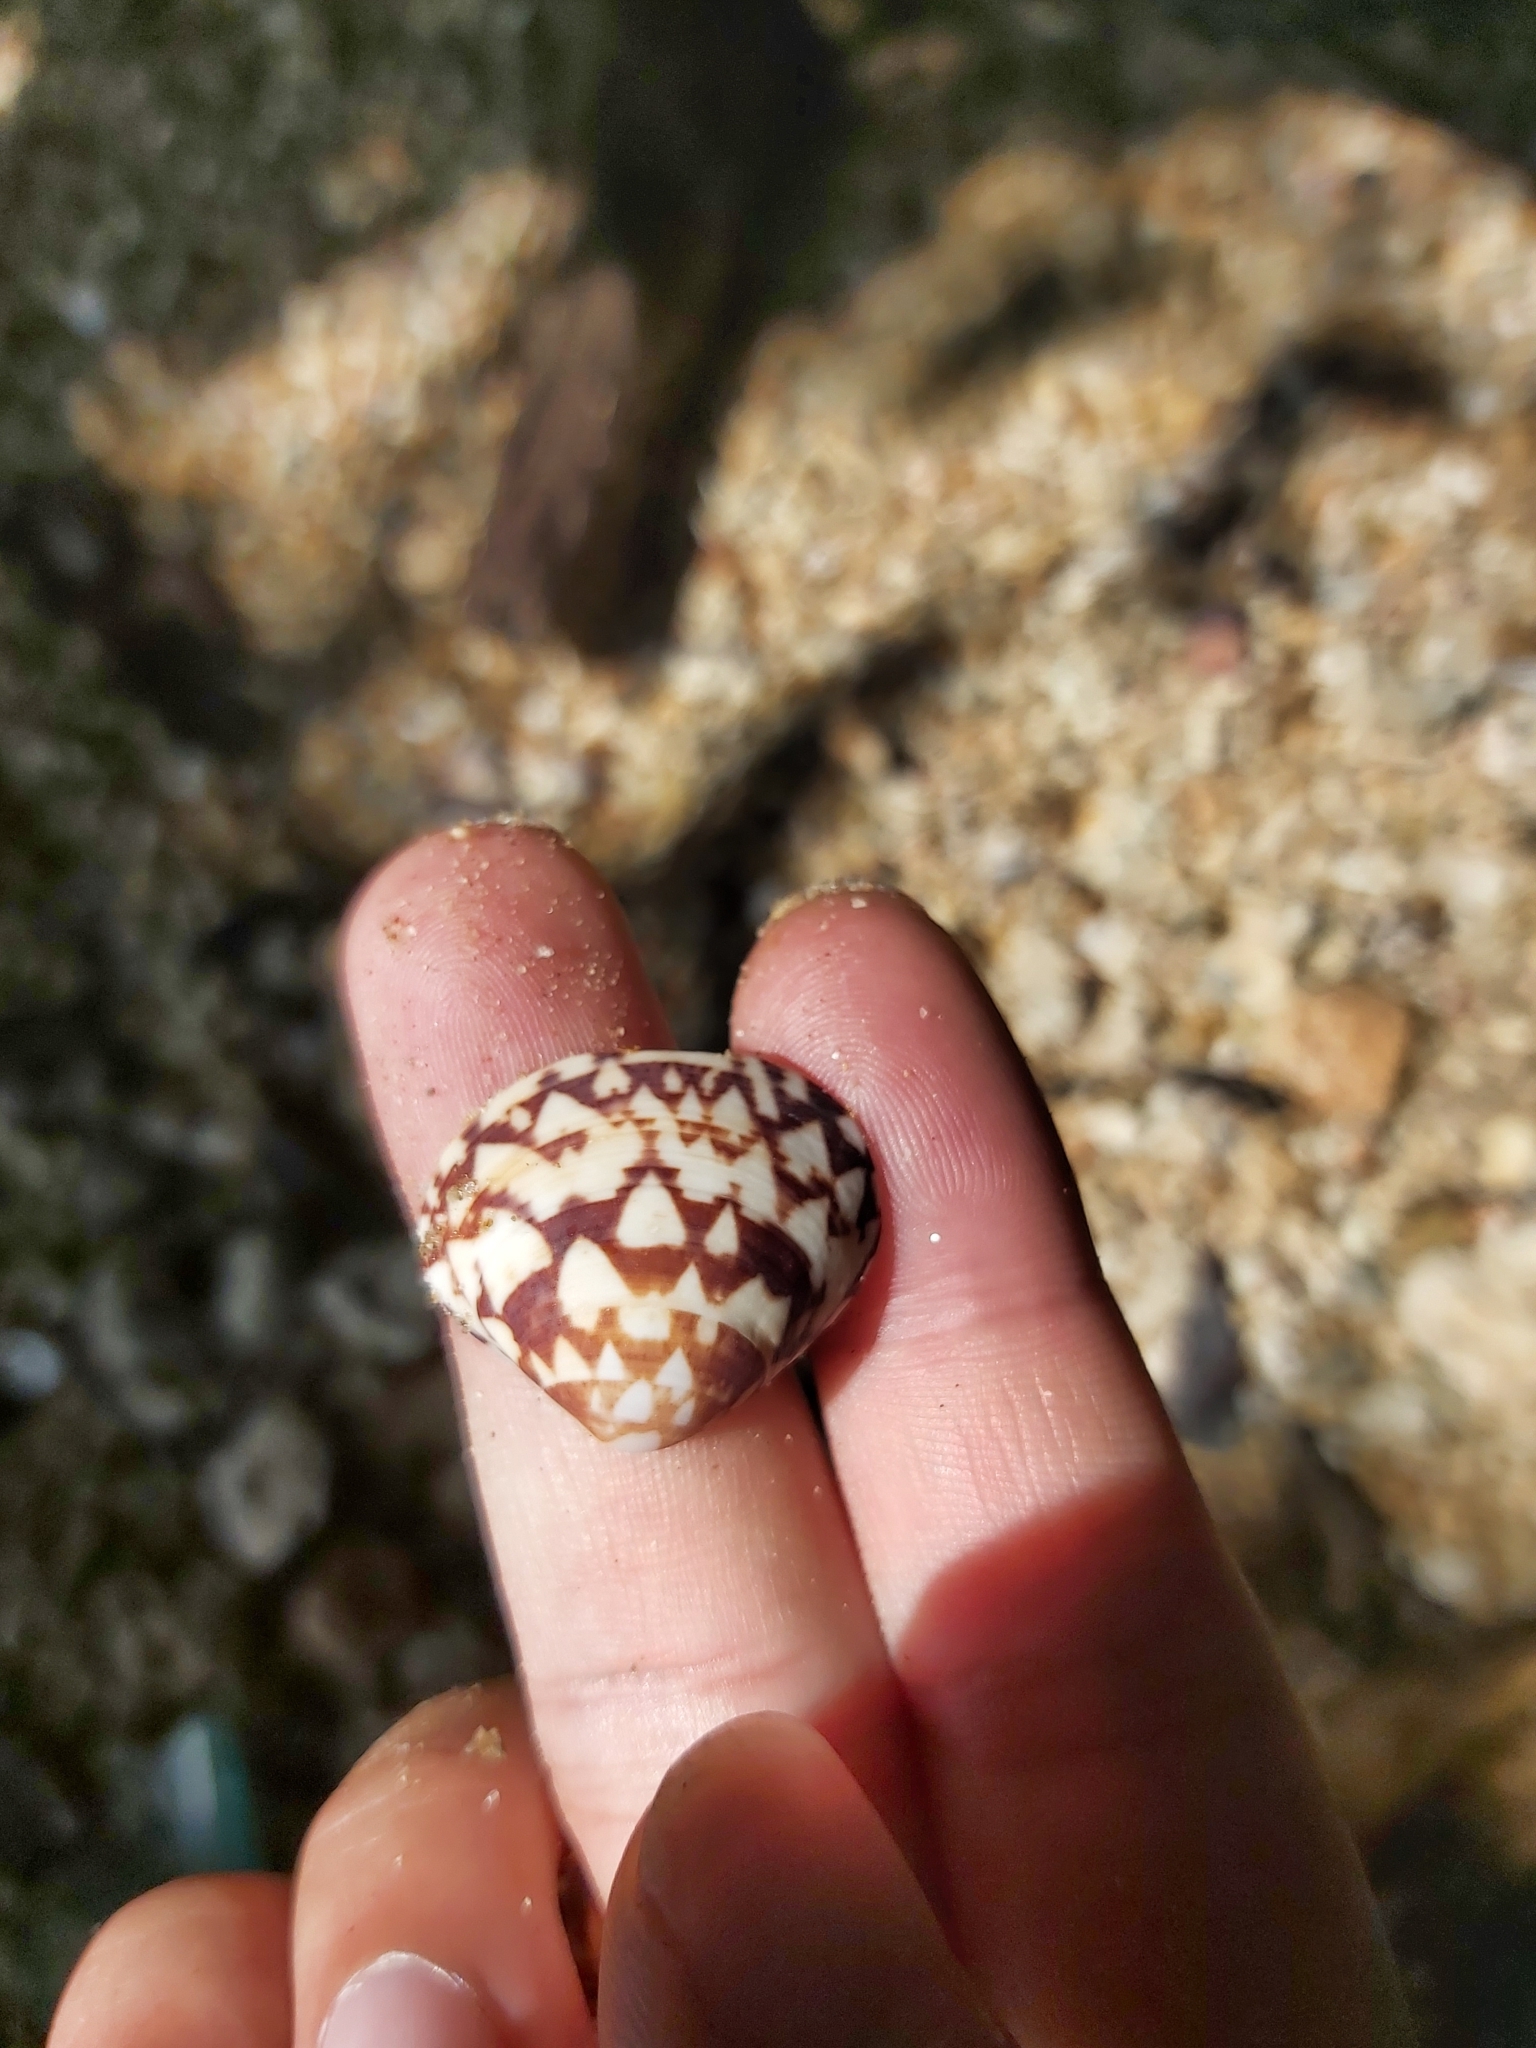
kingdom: Animalia
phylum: Mollusca
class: Bivalvia
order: Venerida
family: Veneridae
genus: Lioconcha
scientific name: Lioconcha fastigiata
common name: Clam
